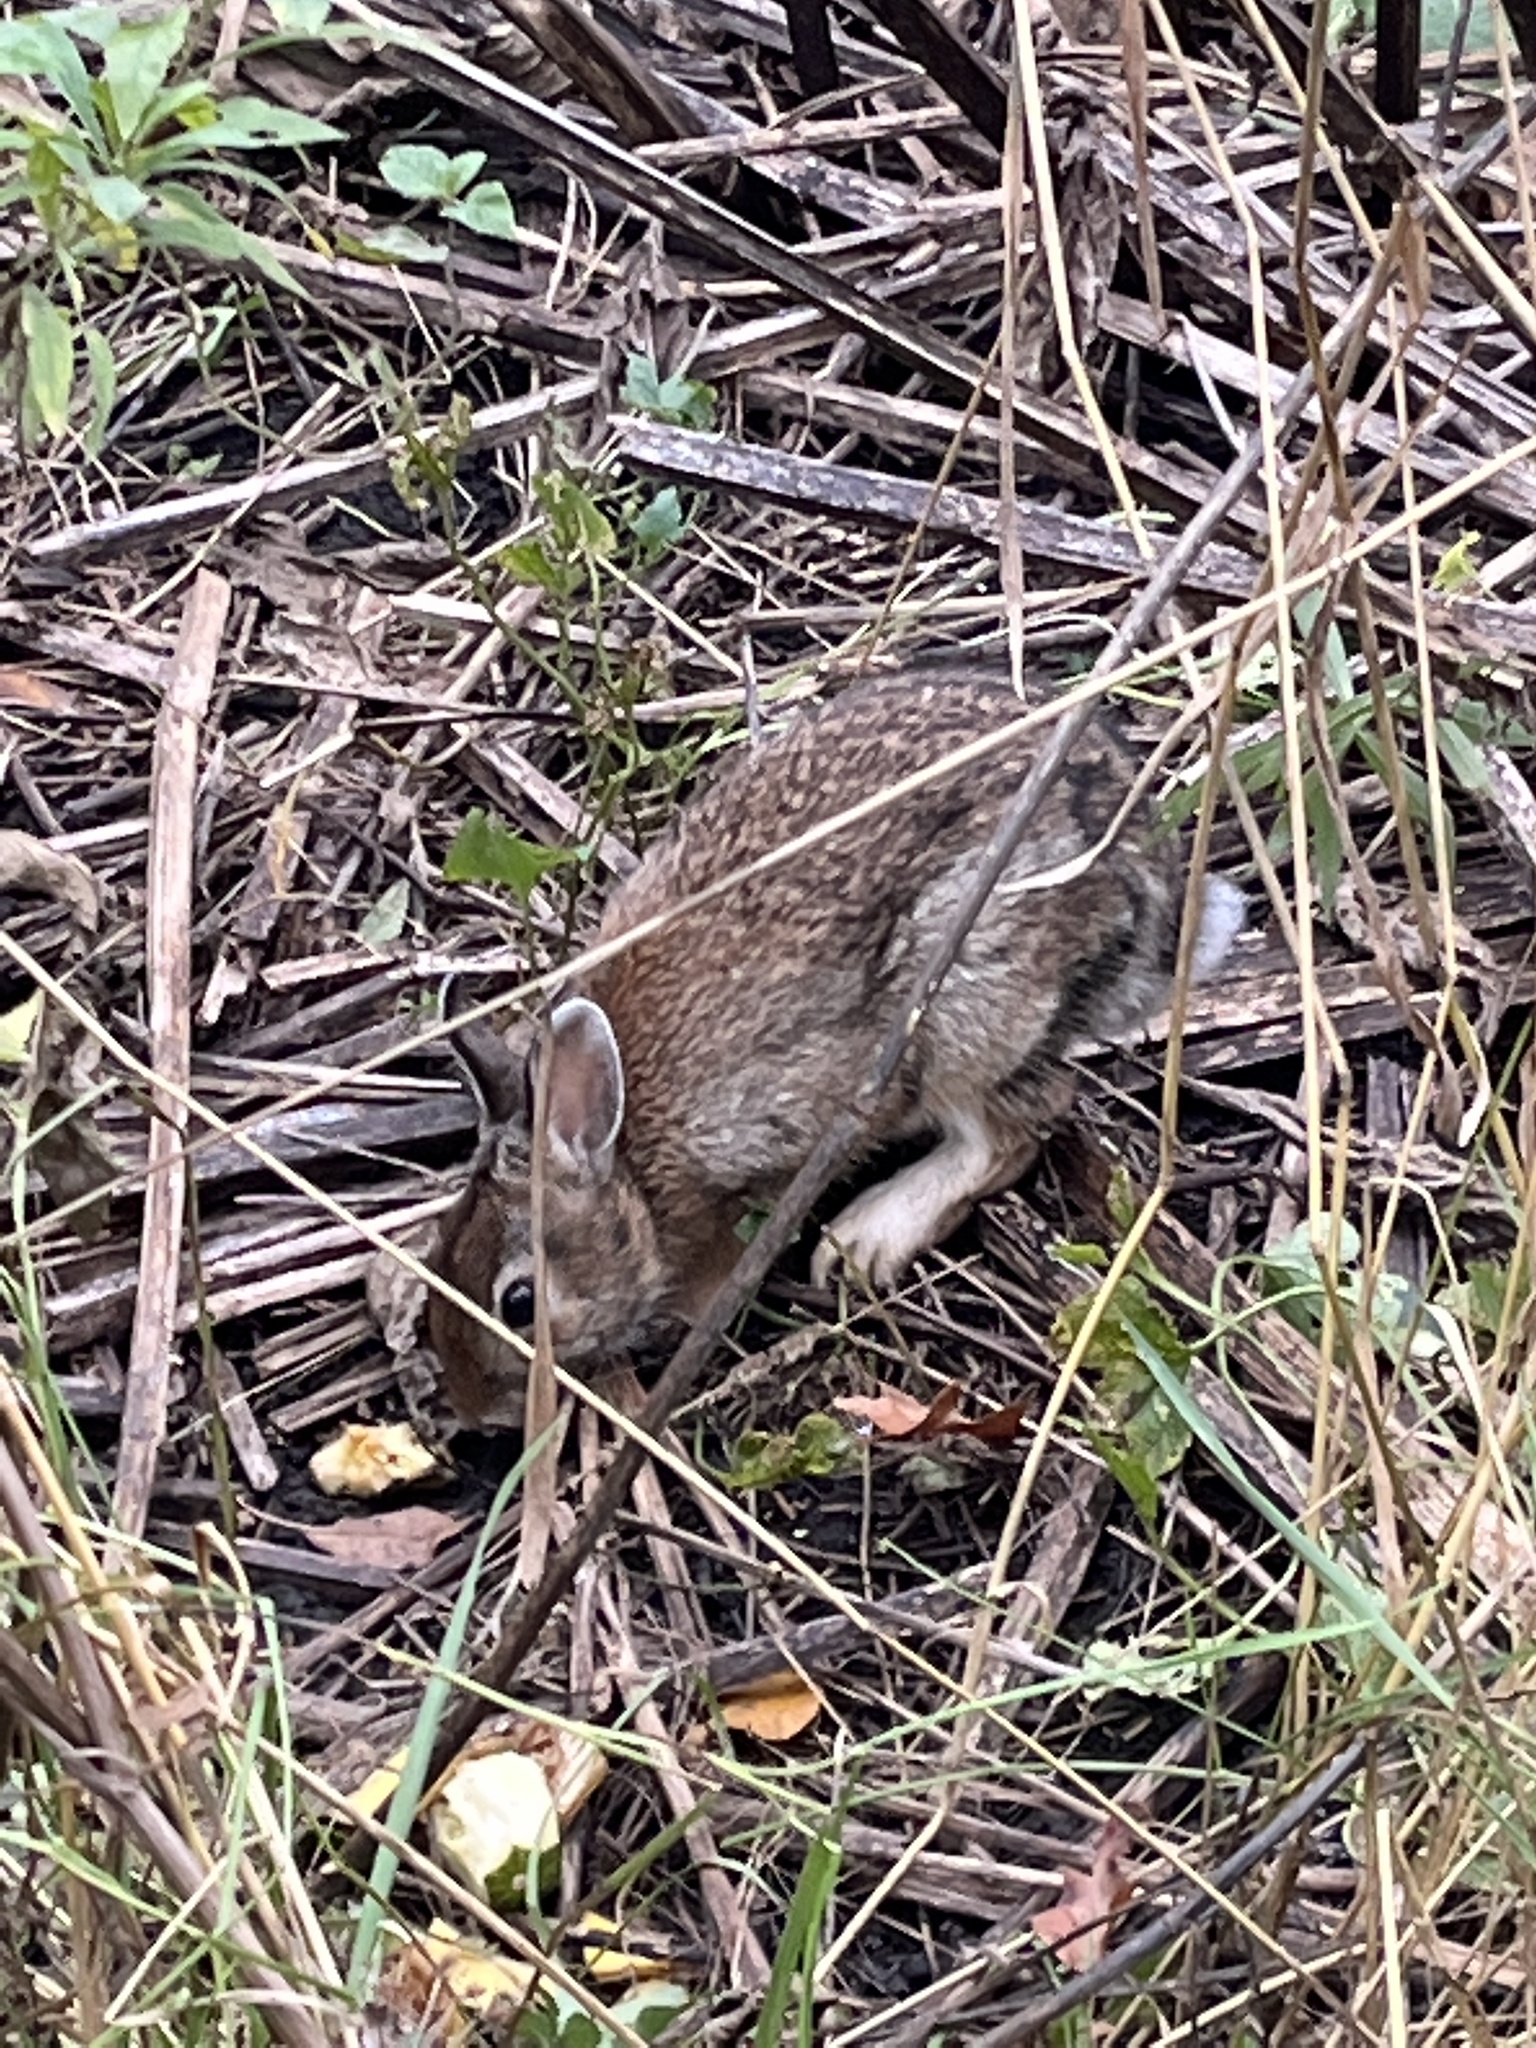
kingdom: Animalia
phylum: Chordata
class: Mammalia
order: Lagomorpha
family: Leporidae
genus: Sylvilagus
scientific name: Sylvilagus floridanus
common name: Eastern cottontail
